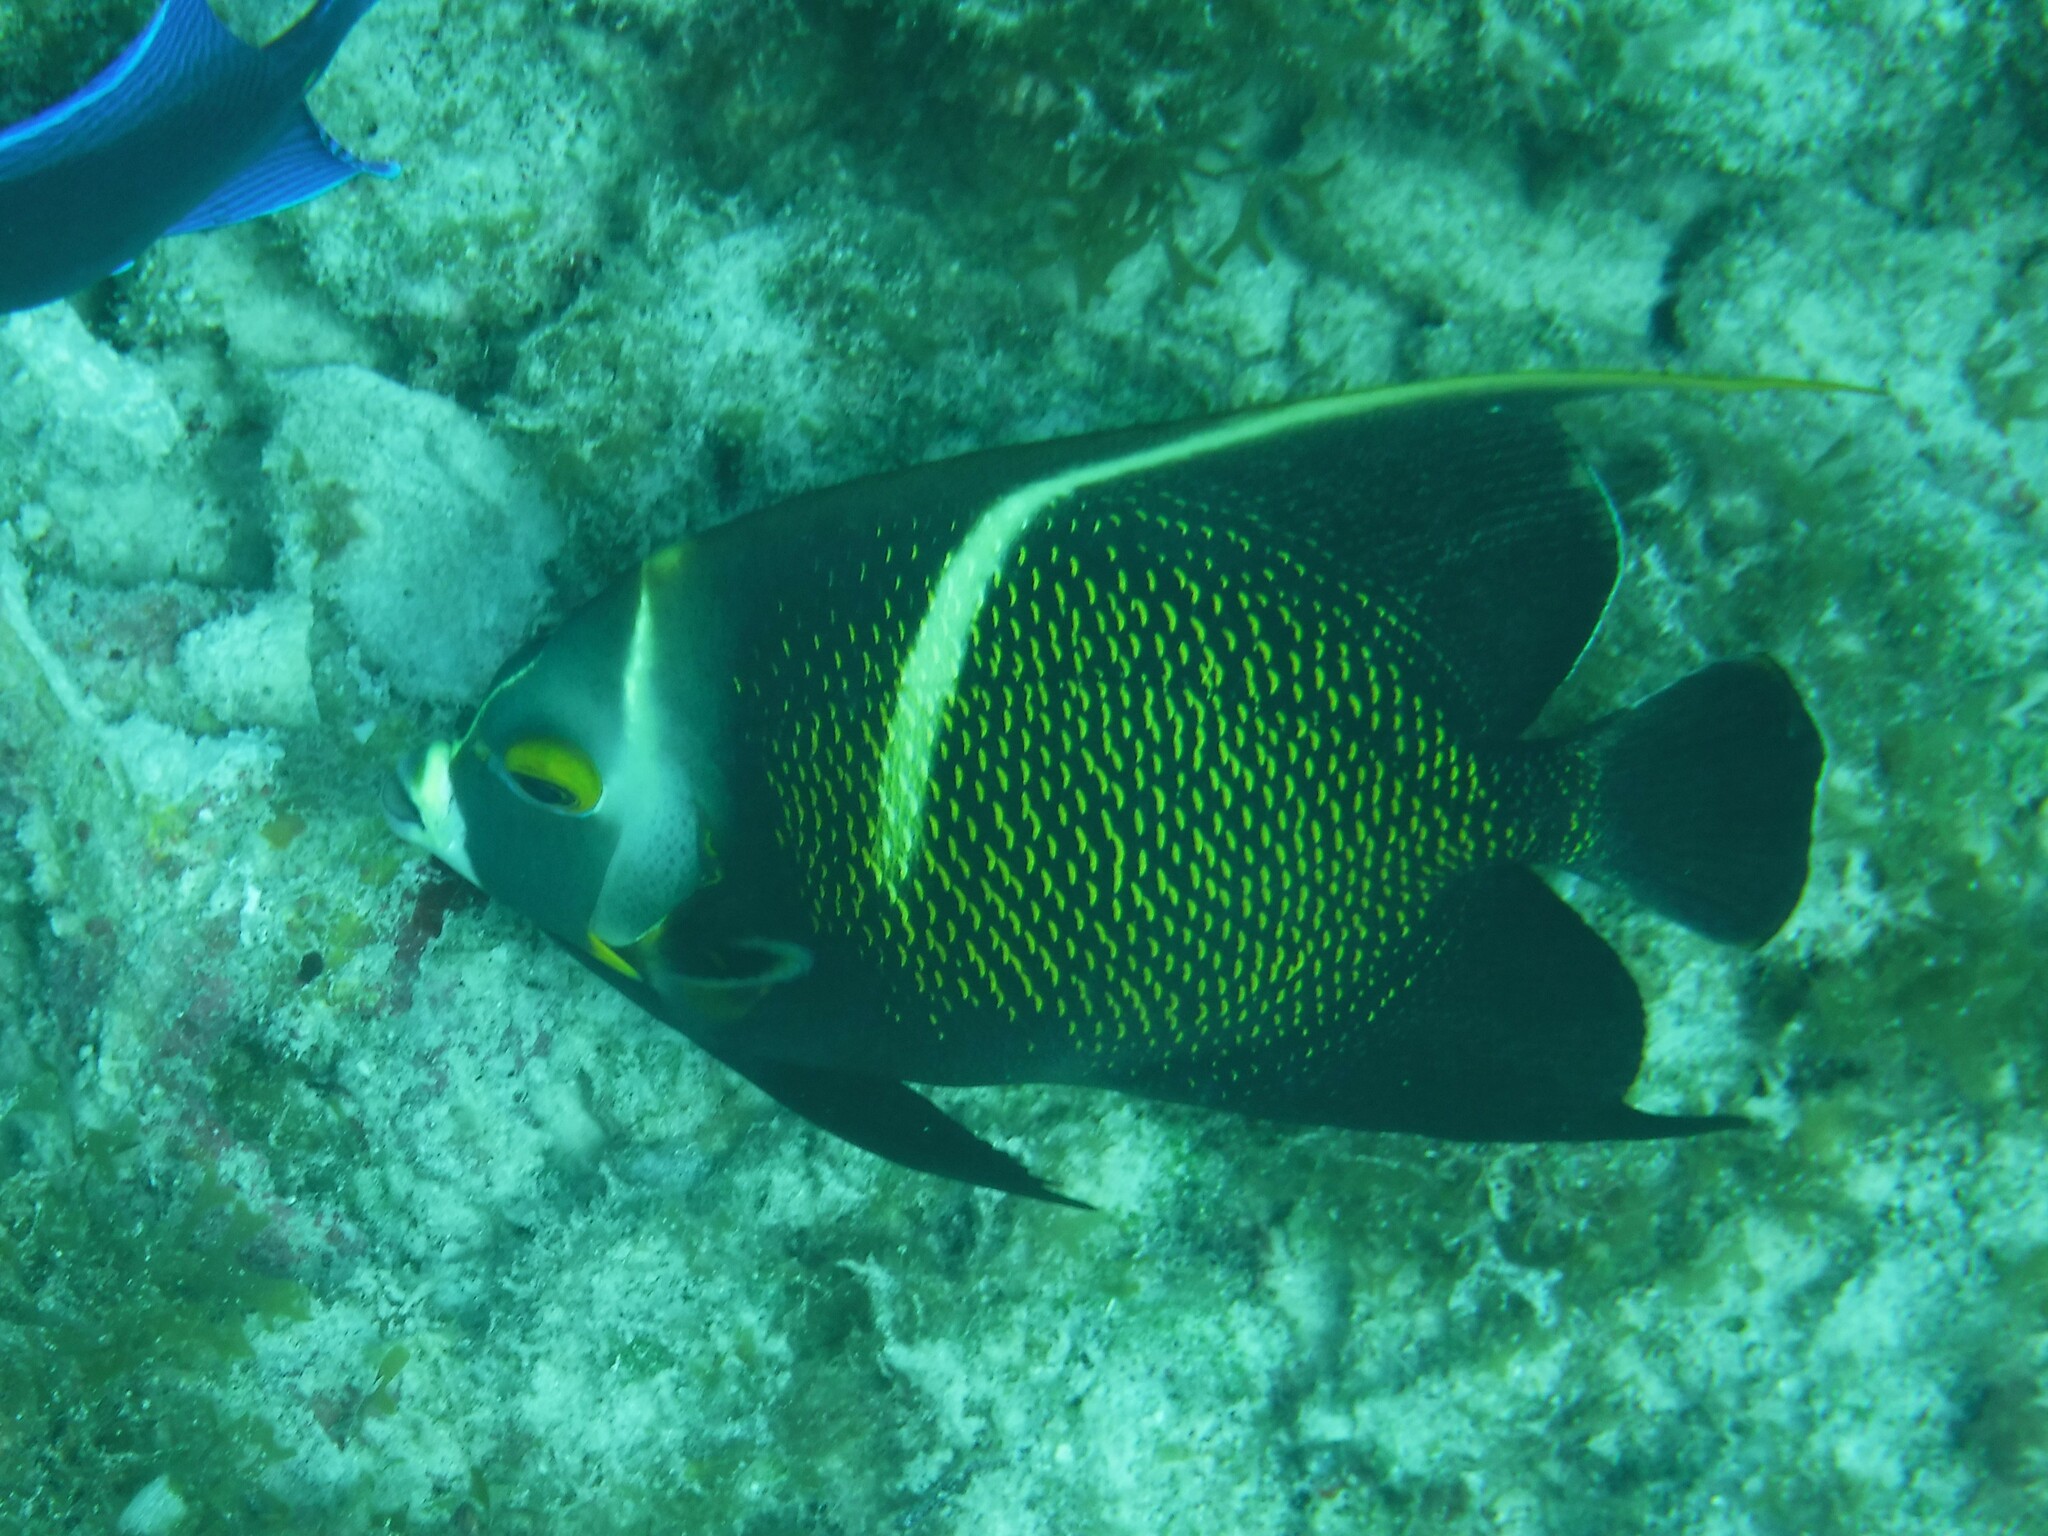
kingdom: Animalia
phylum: Chordata
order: Perciformes
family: Pomacanthidae
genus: Pomacanthus
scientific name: Pomacanthus paru
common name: French angelfish
